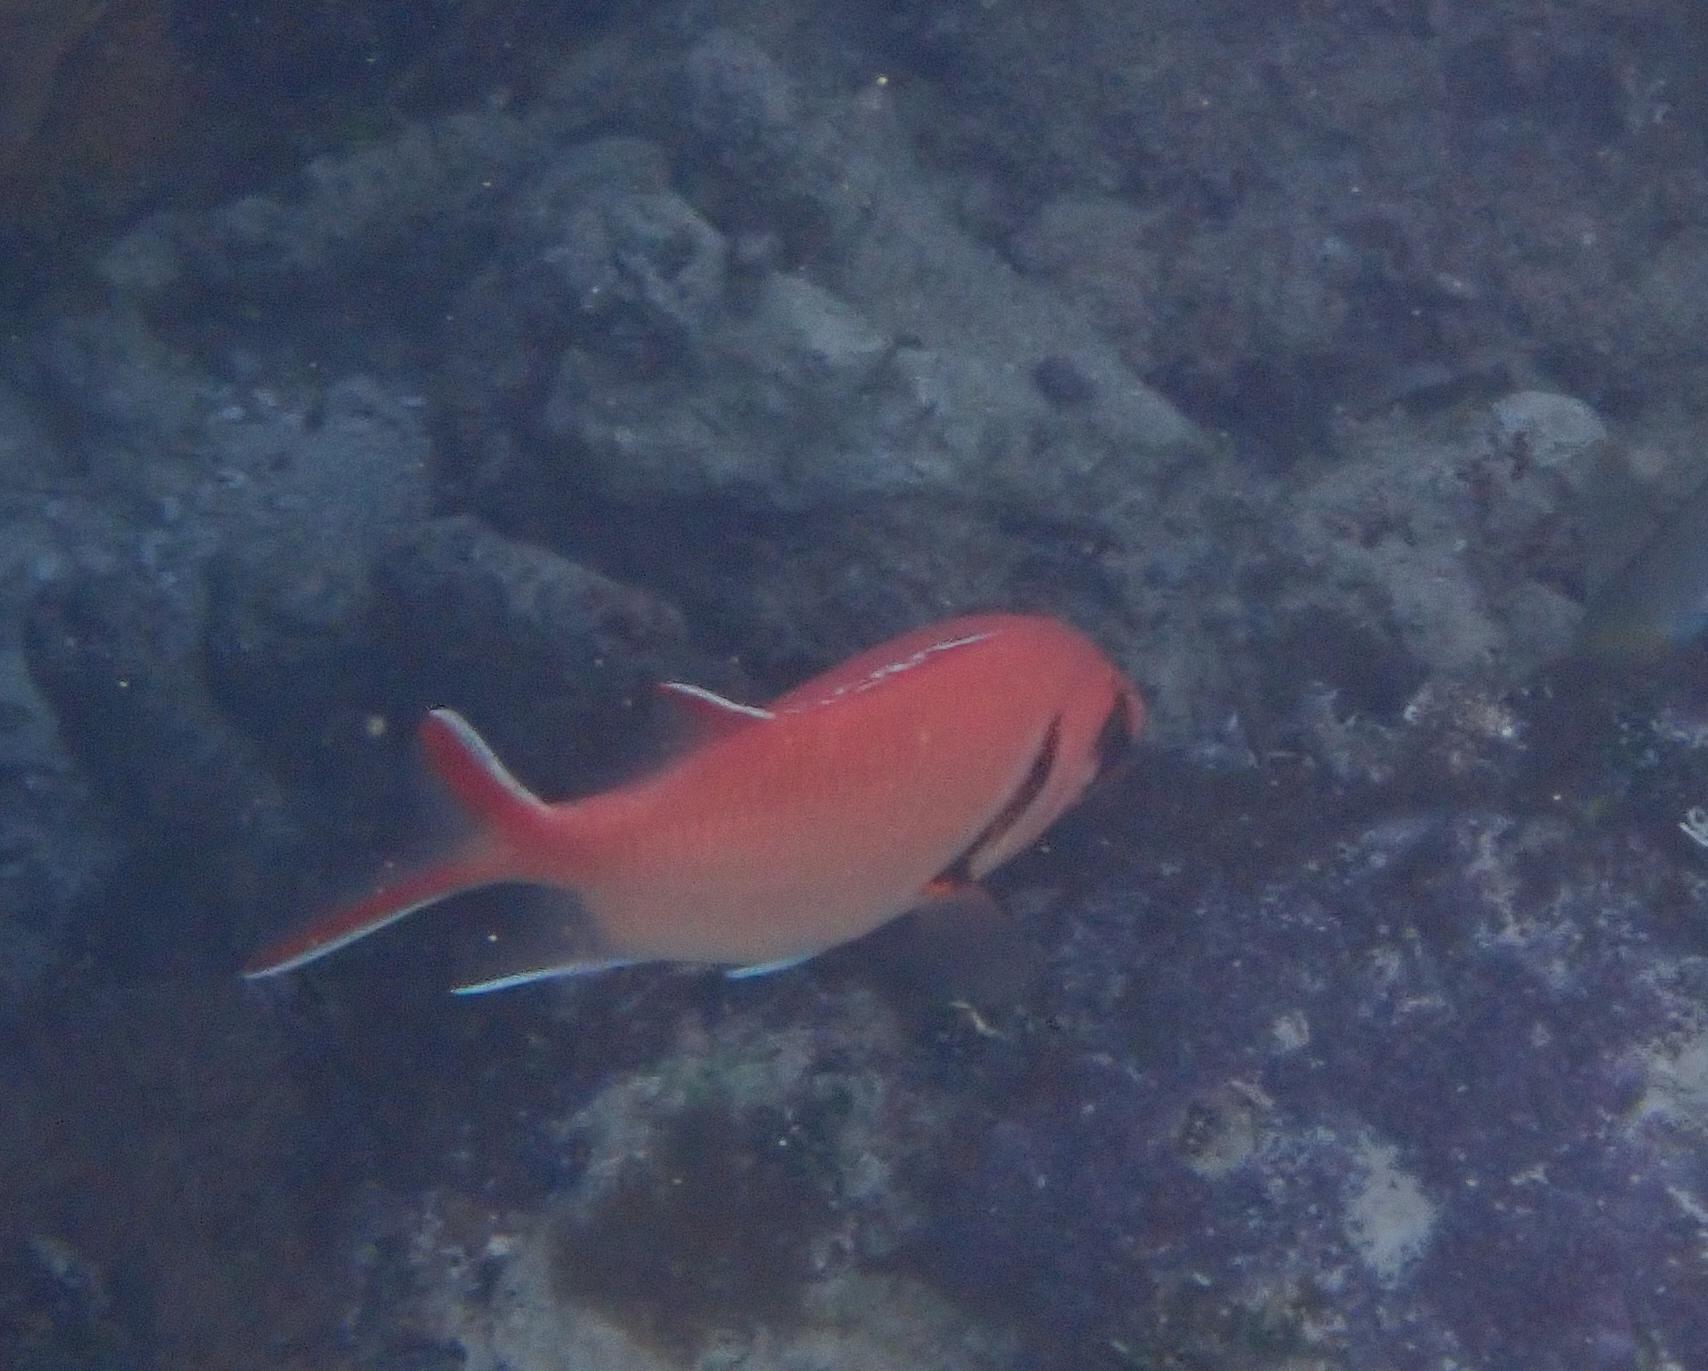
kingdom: Animalia
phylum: Chordata
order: Beryciformes
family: Holocentridae
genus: Myripristis
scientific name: Myripristis jacobus
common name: Blackbar soldierfish
